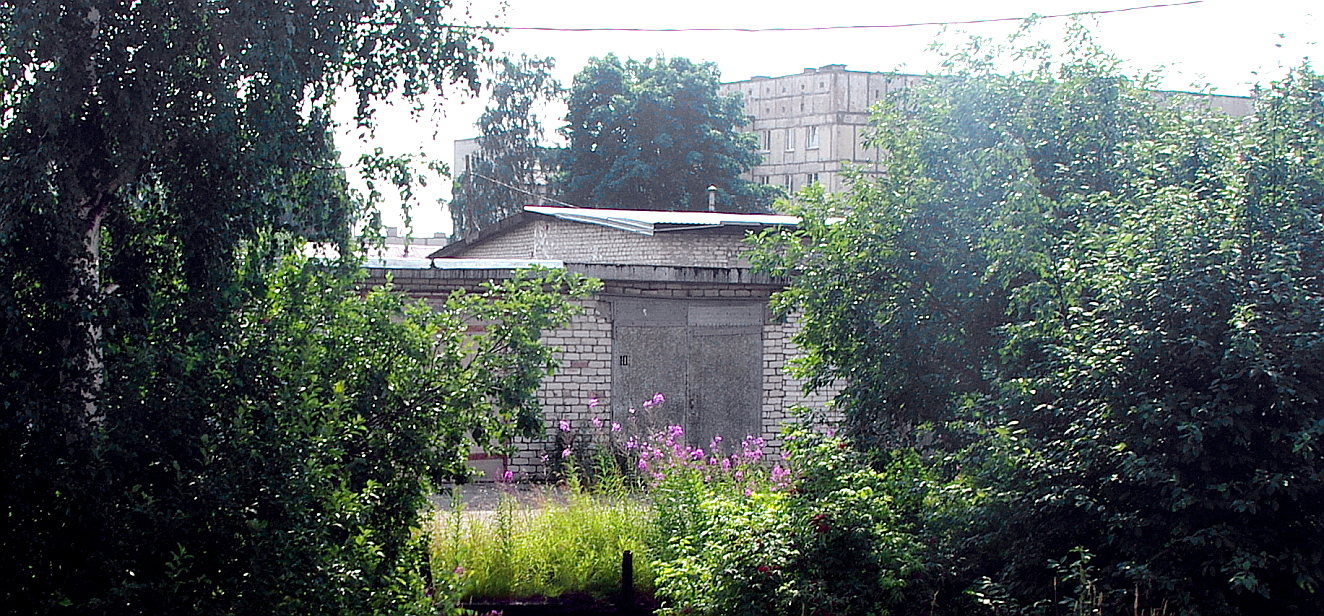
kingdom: Plantae
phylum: Tracheophyta
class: Magnoliopsida
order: Myrtales
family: Onagraceae
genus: Chamaenerion
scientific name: Chamaenerion angustifolium
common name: Fireweed
